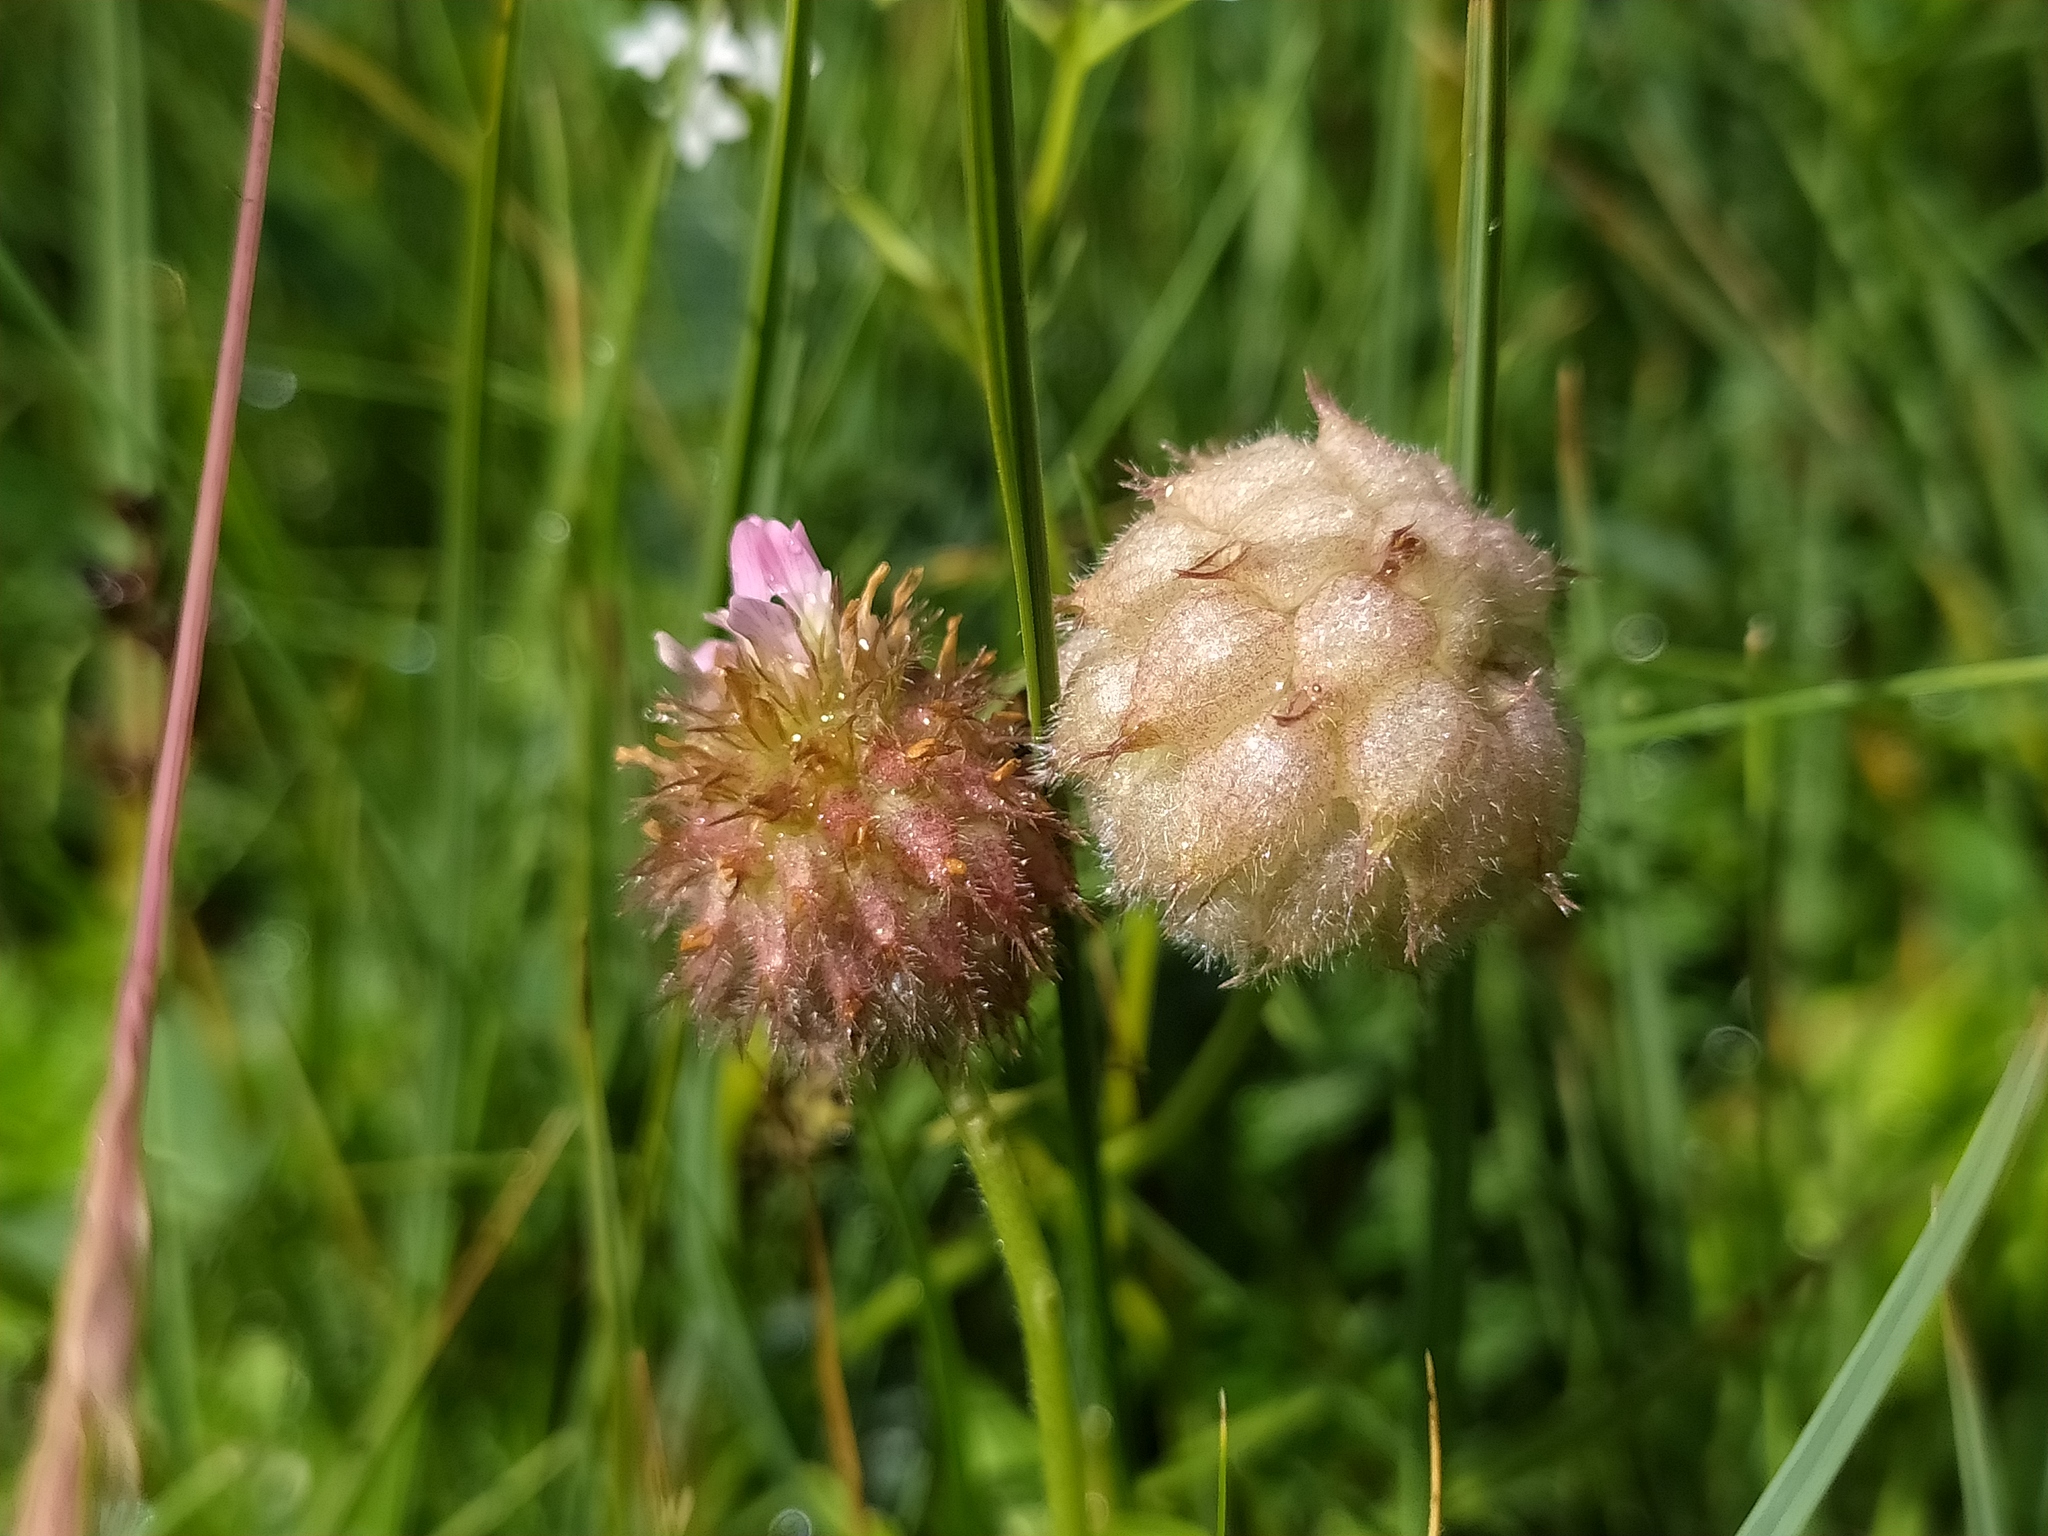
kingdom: Plantae
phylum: Tracheophyta
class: Magnoliopsida
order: Fabales
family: Fabaceae
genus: Trifolium
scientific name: Trifolium fragiferum
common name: Strawberry clover
